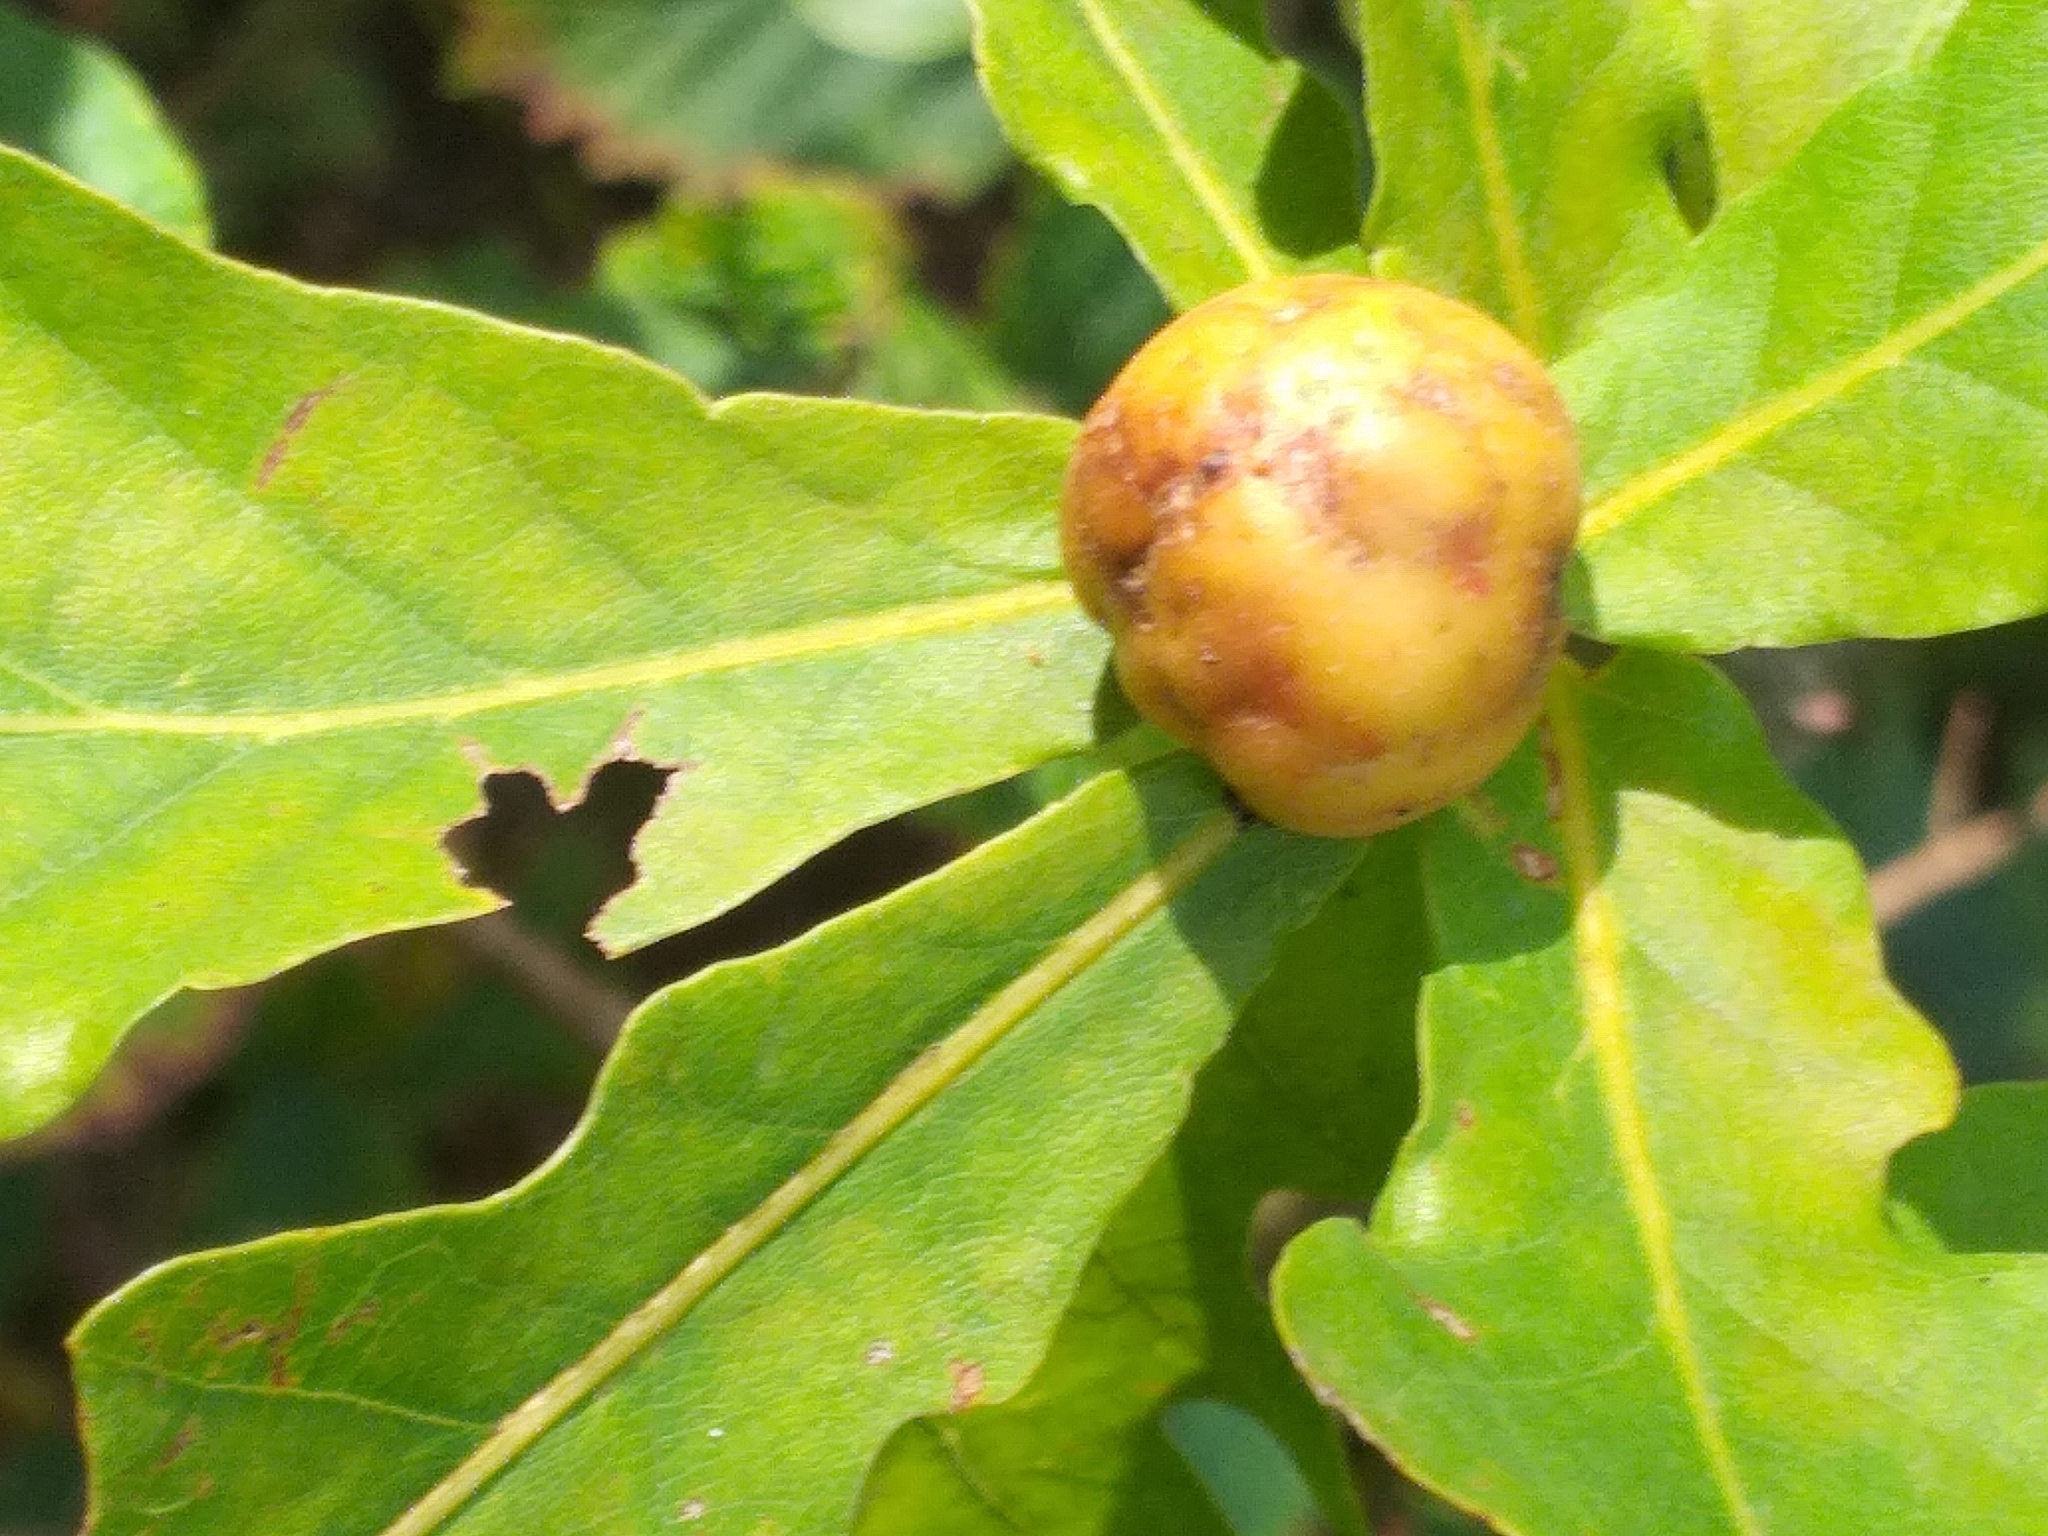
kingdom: Animalia
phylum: Arthropoda
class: Insecta
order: Hymenoptera
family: Cynipidae
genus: Andricus
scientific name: Andricus kollari
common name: Marble gall
